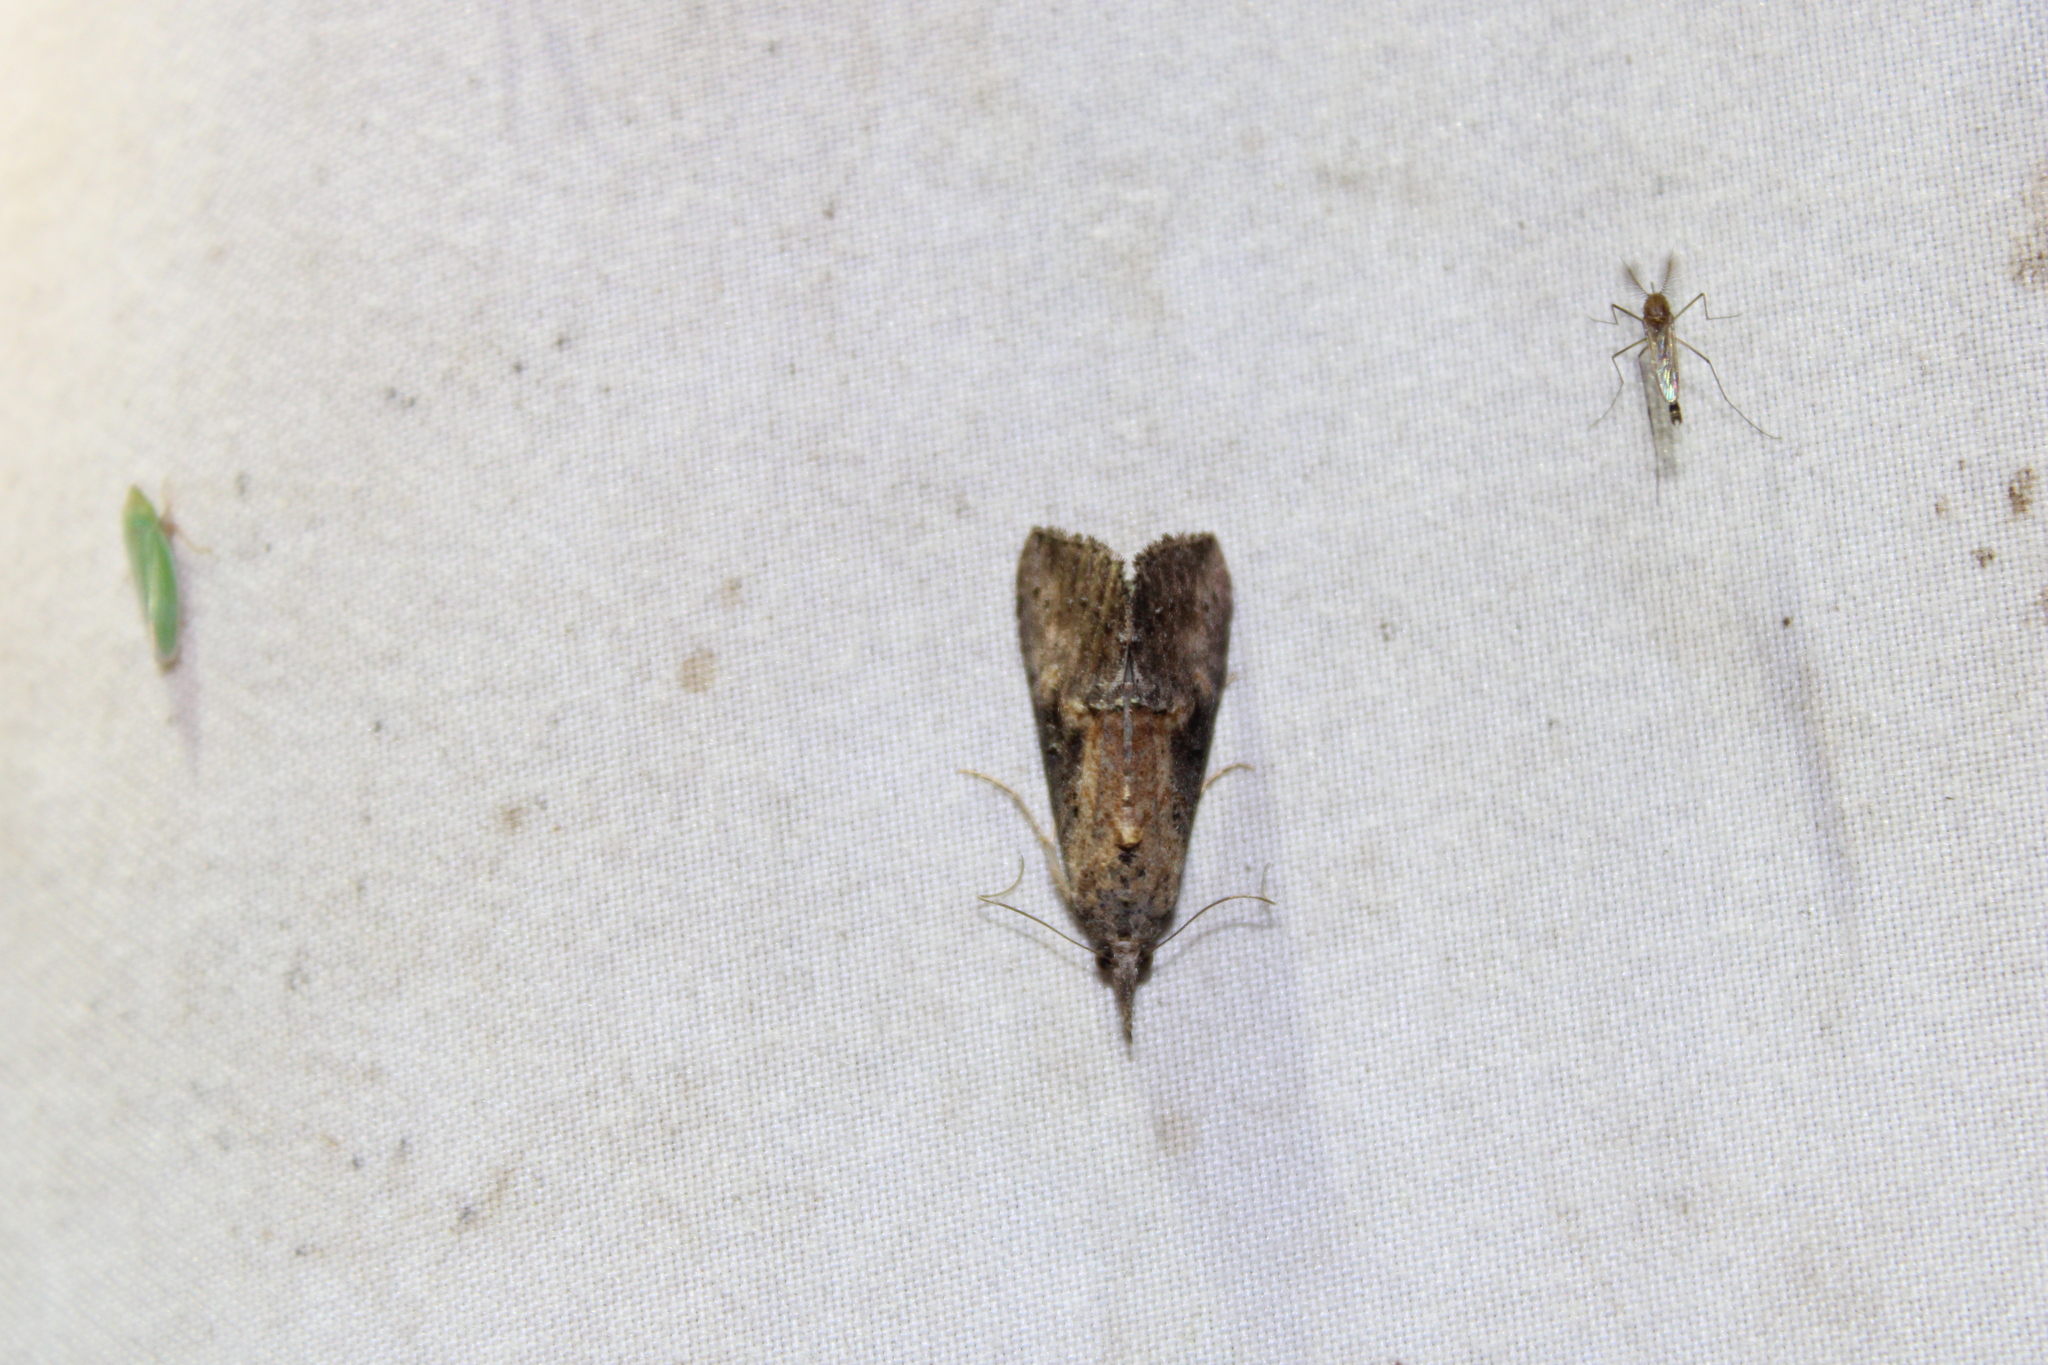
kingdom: Animalia
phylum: Arthropoda
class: Insecta
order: Lepidoptera
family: Erebidae
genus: Hypena
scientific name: Hypena scabra
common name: Green cloverworm
